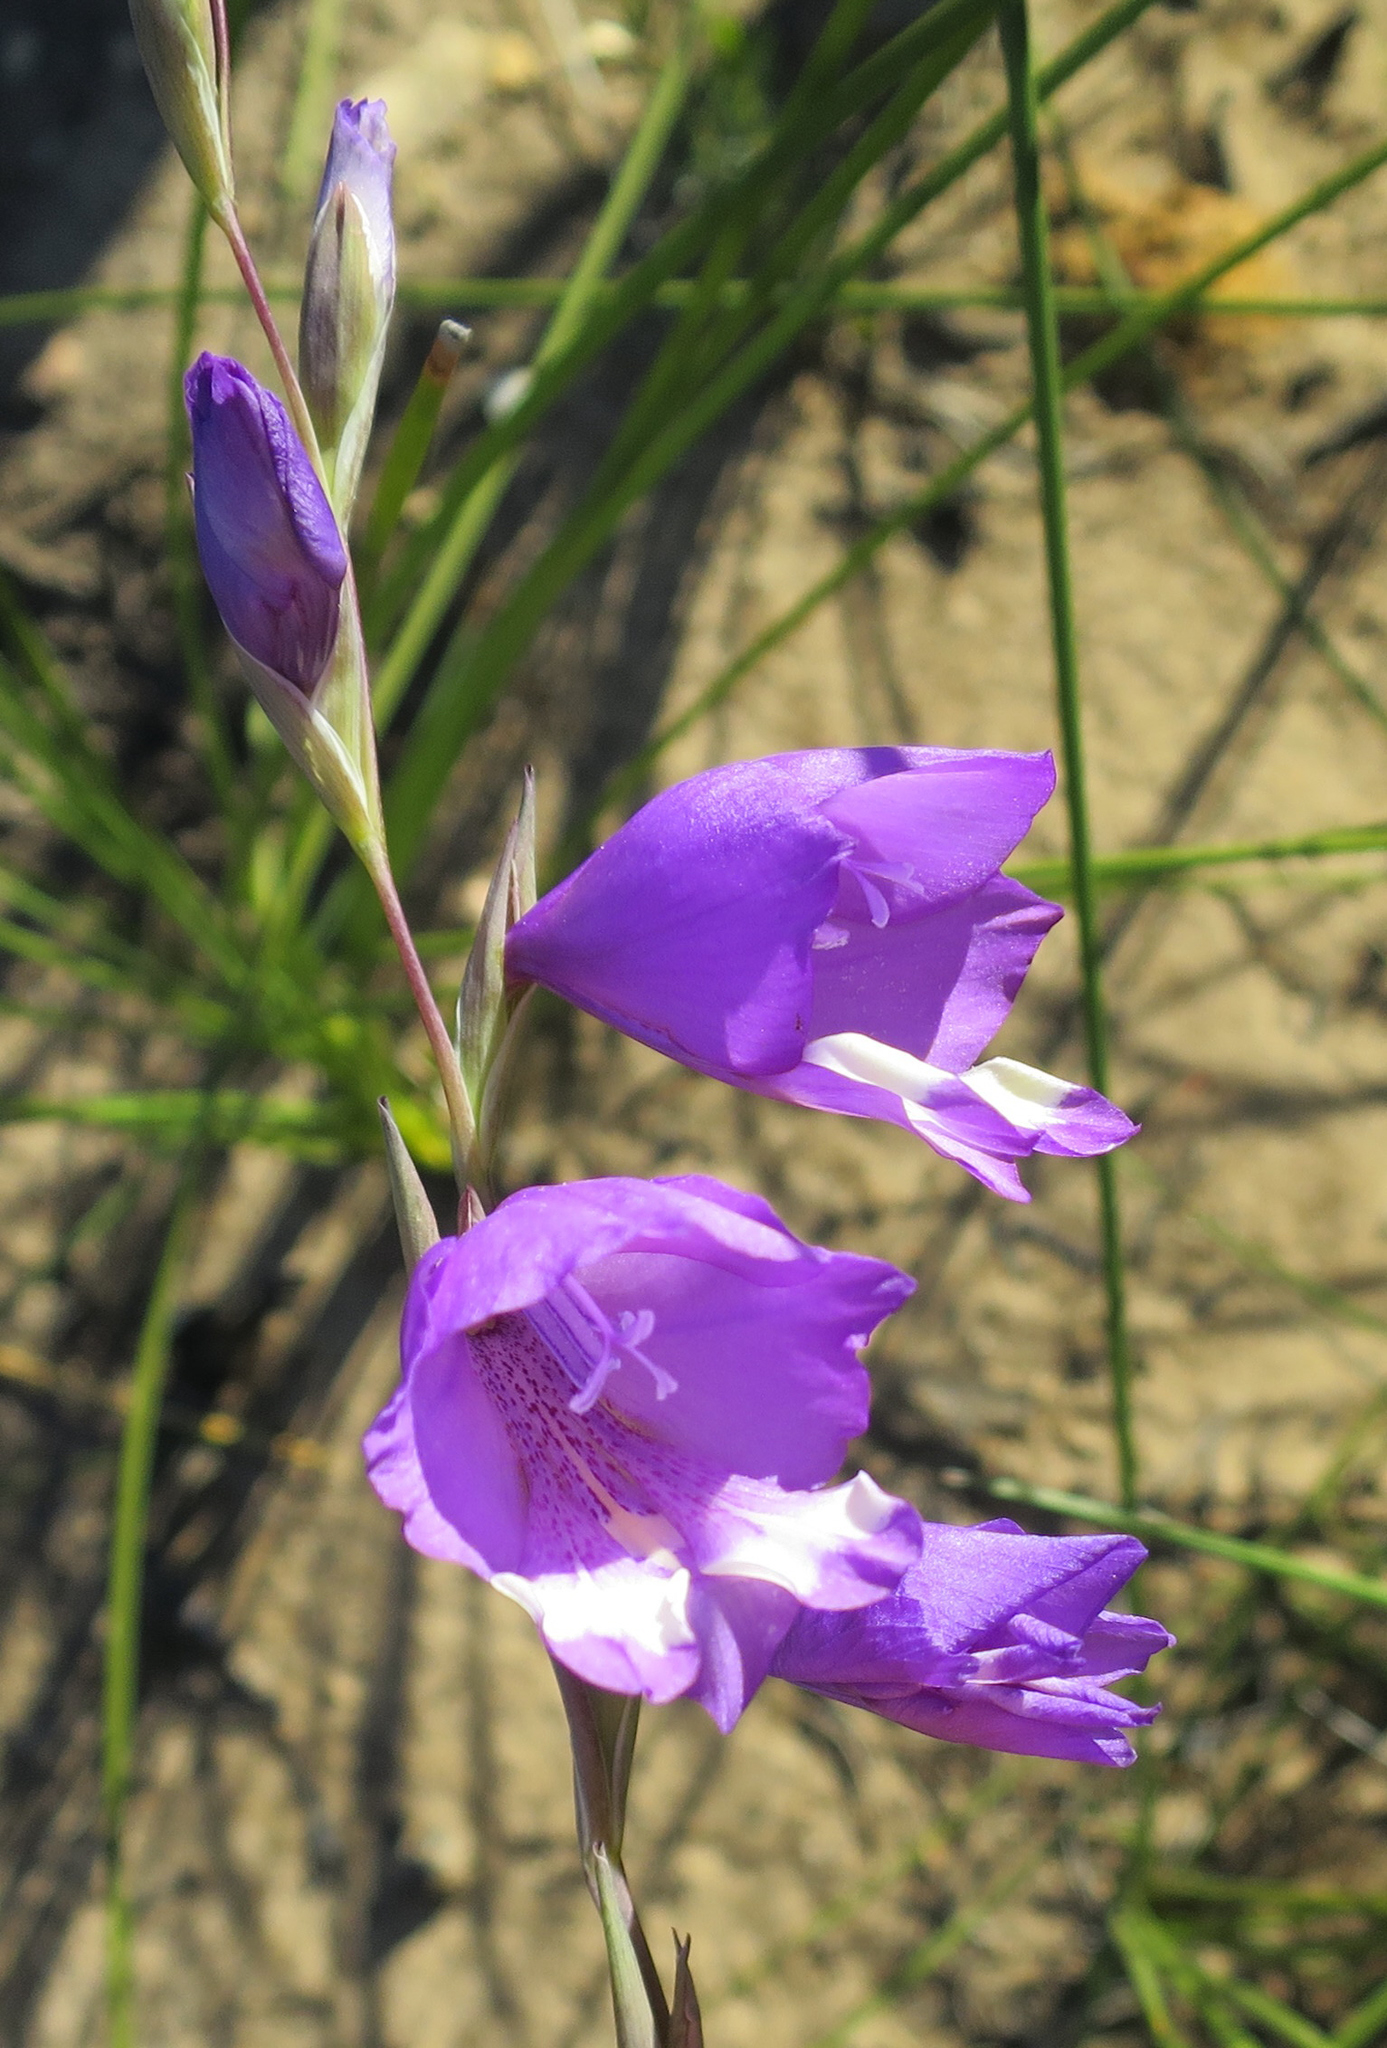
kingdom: Plantae
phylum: Tracheophyta
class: Liliopsida
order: Asparagales
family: Iridaceae
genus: Gladiolus
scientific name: Gladiolus rogersii
